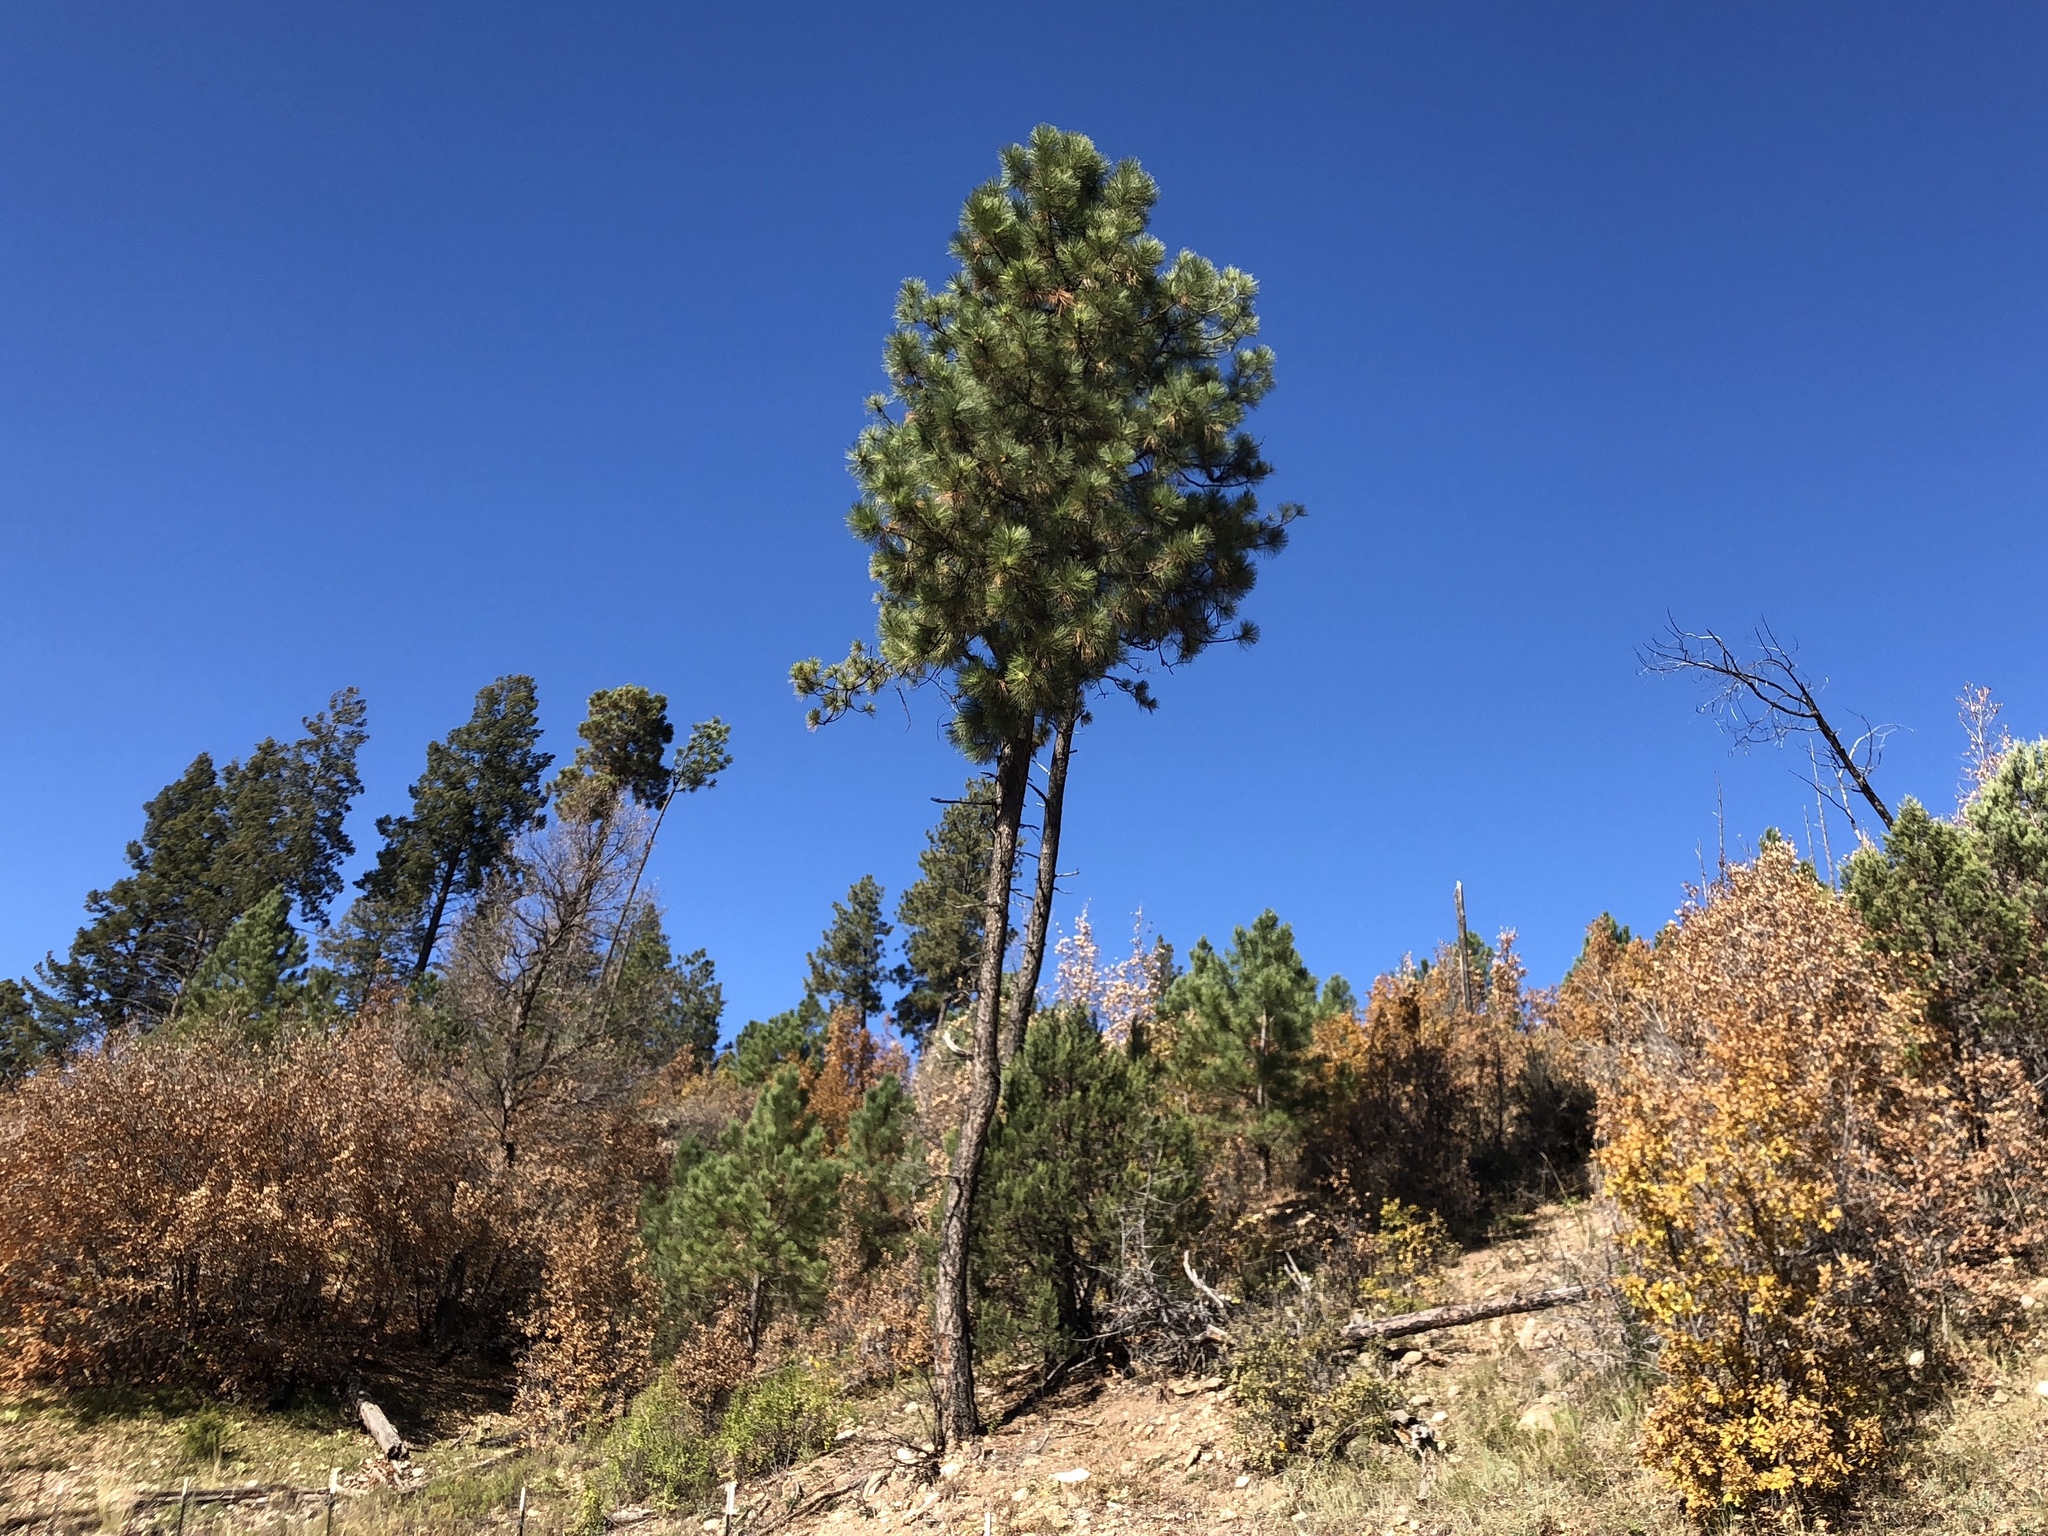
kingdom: Plantae
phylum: Tracheophyta
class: Pinopsida
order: Pinales
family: Pinaceae
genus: Pinus
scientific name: Pinus ponderosa
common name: Western yellow-pine
